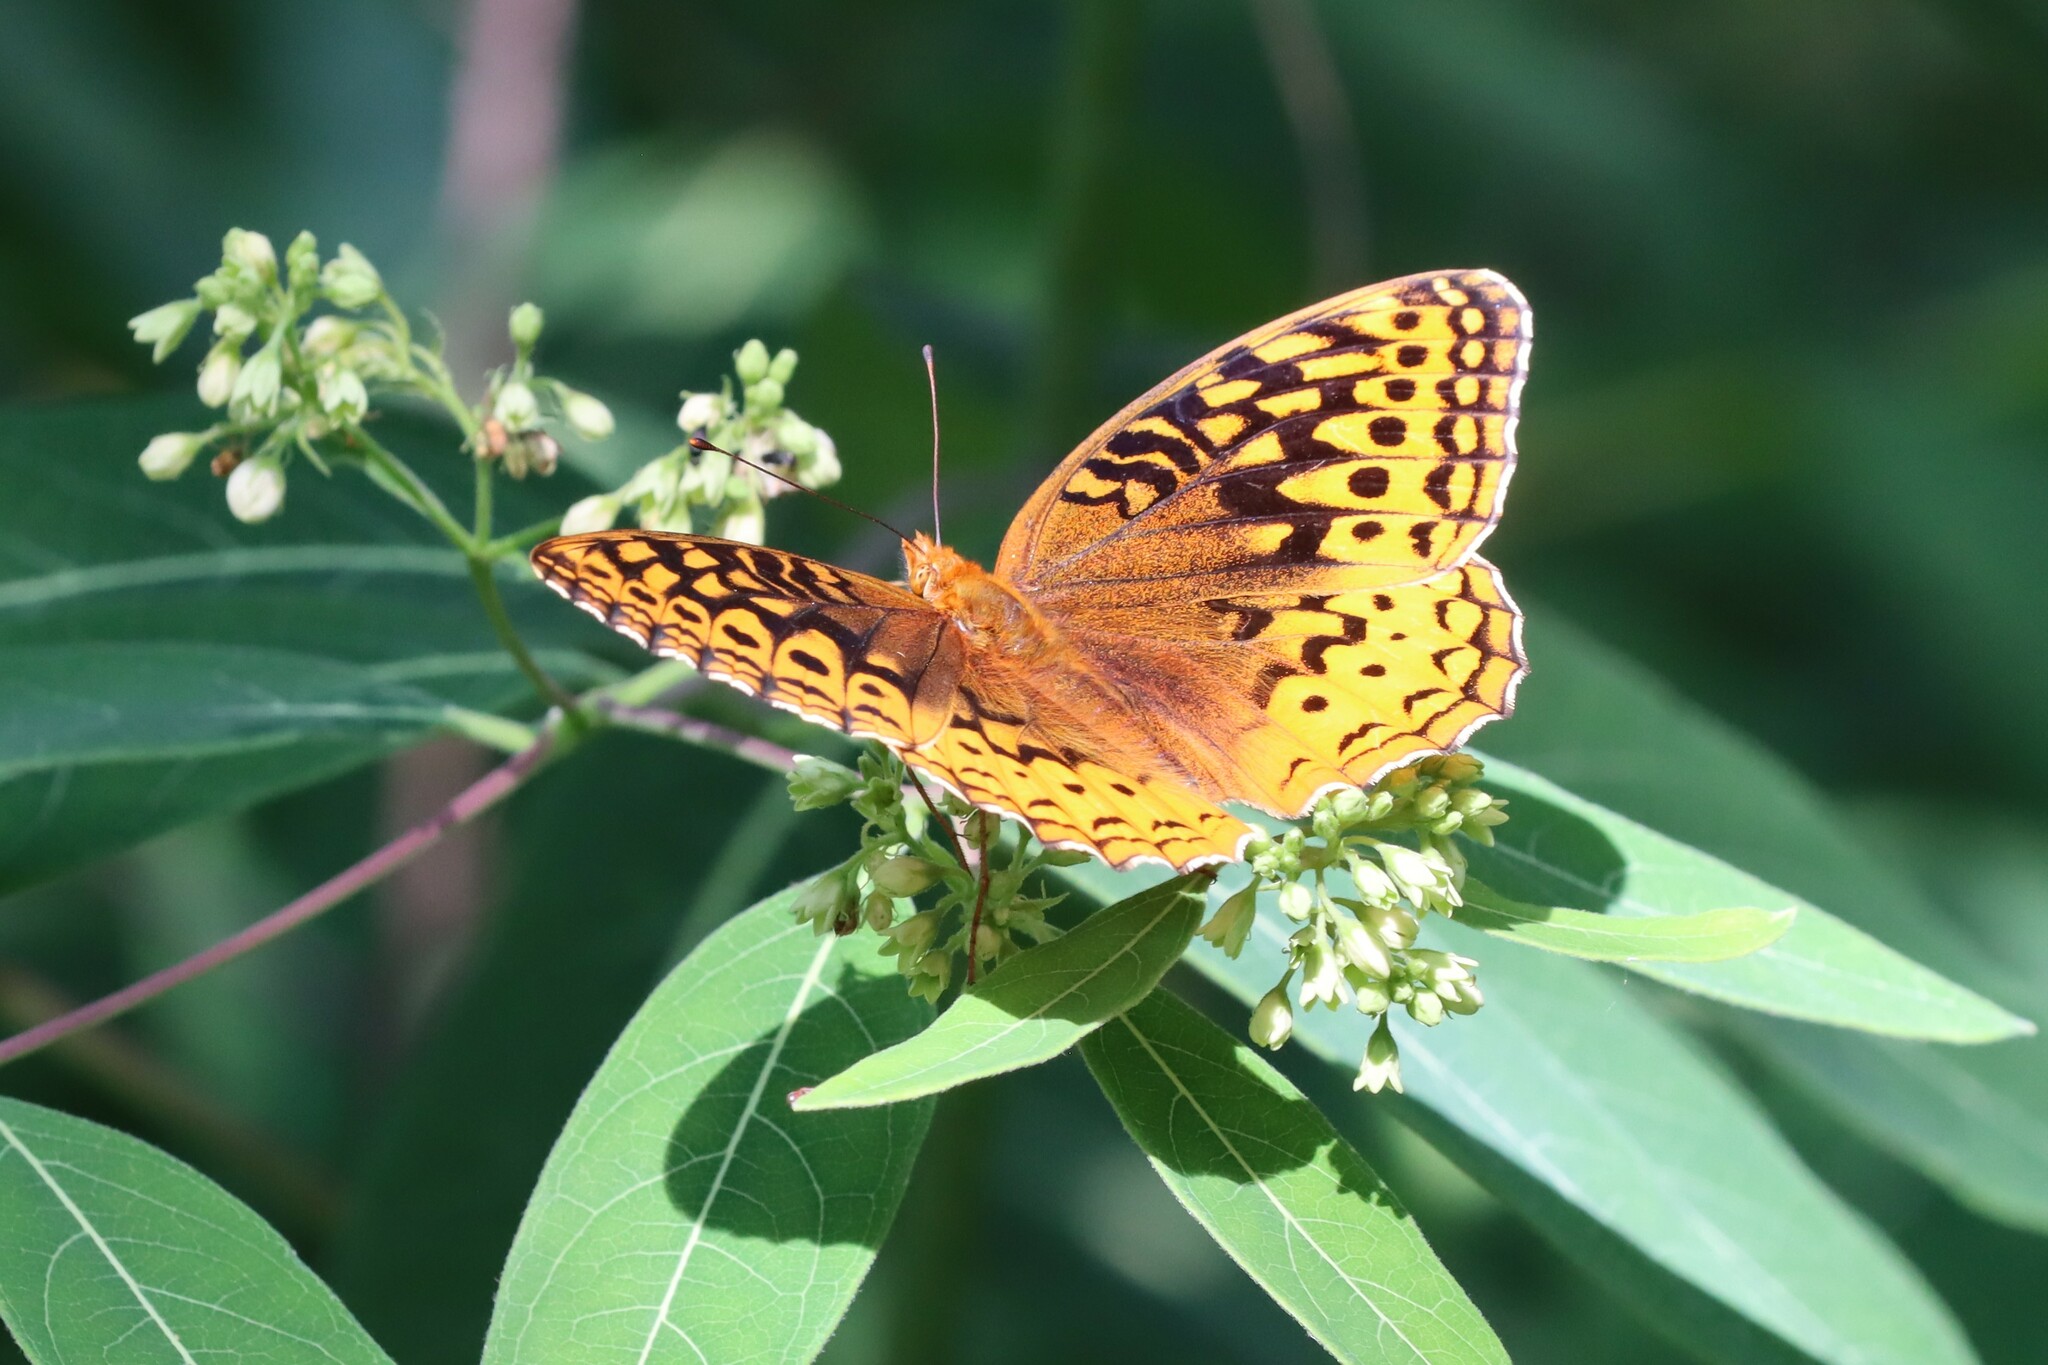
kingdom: Animalia
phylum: Arthropoda
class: Insecta
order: Lepidoptera
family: Nymphalidae
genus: Speyeria
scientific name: Speyeria cybele
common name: Great spangled fritillary
